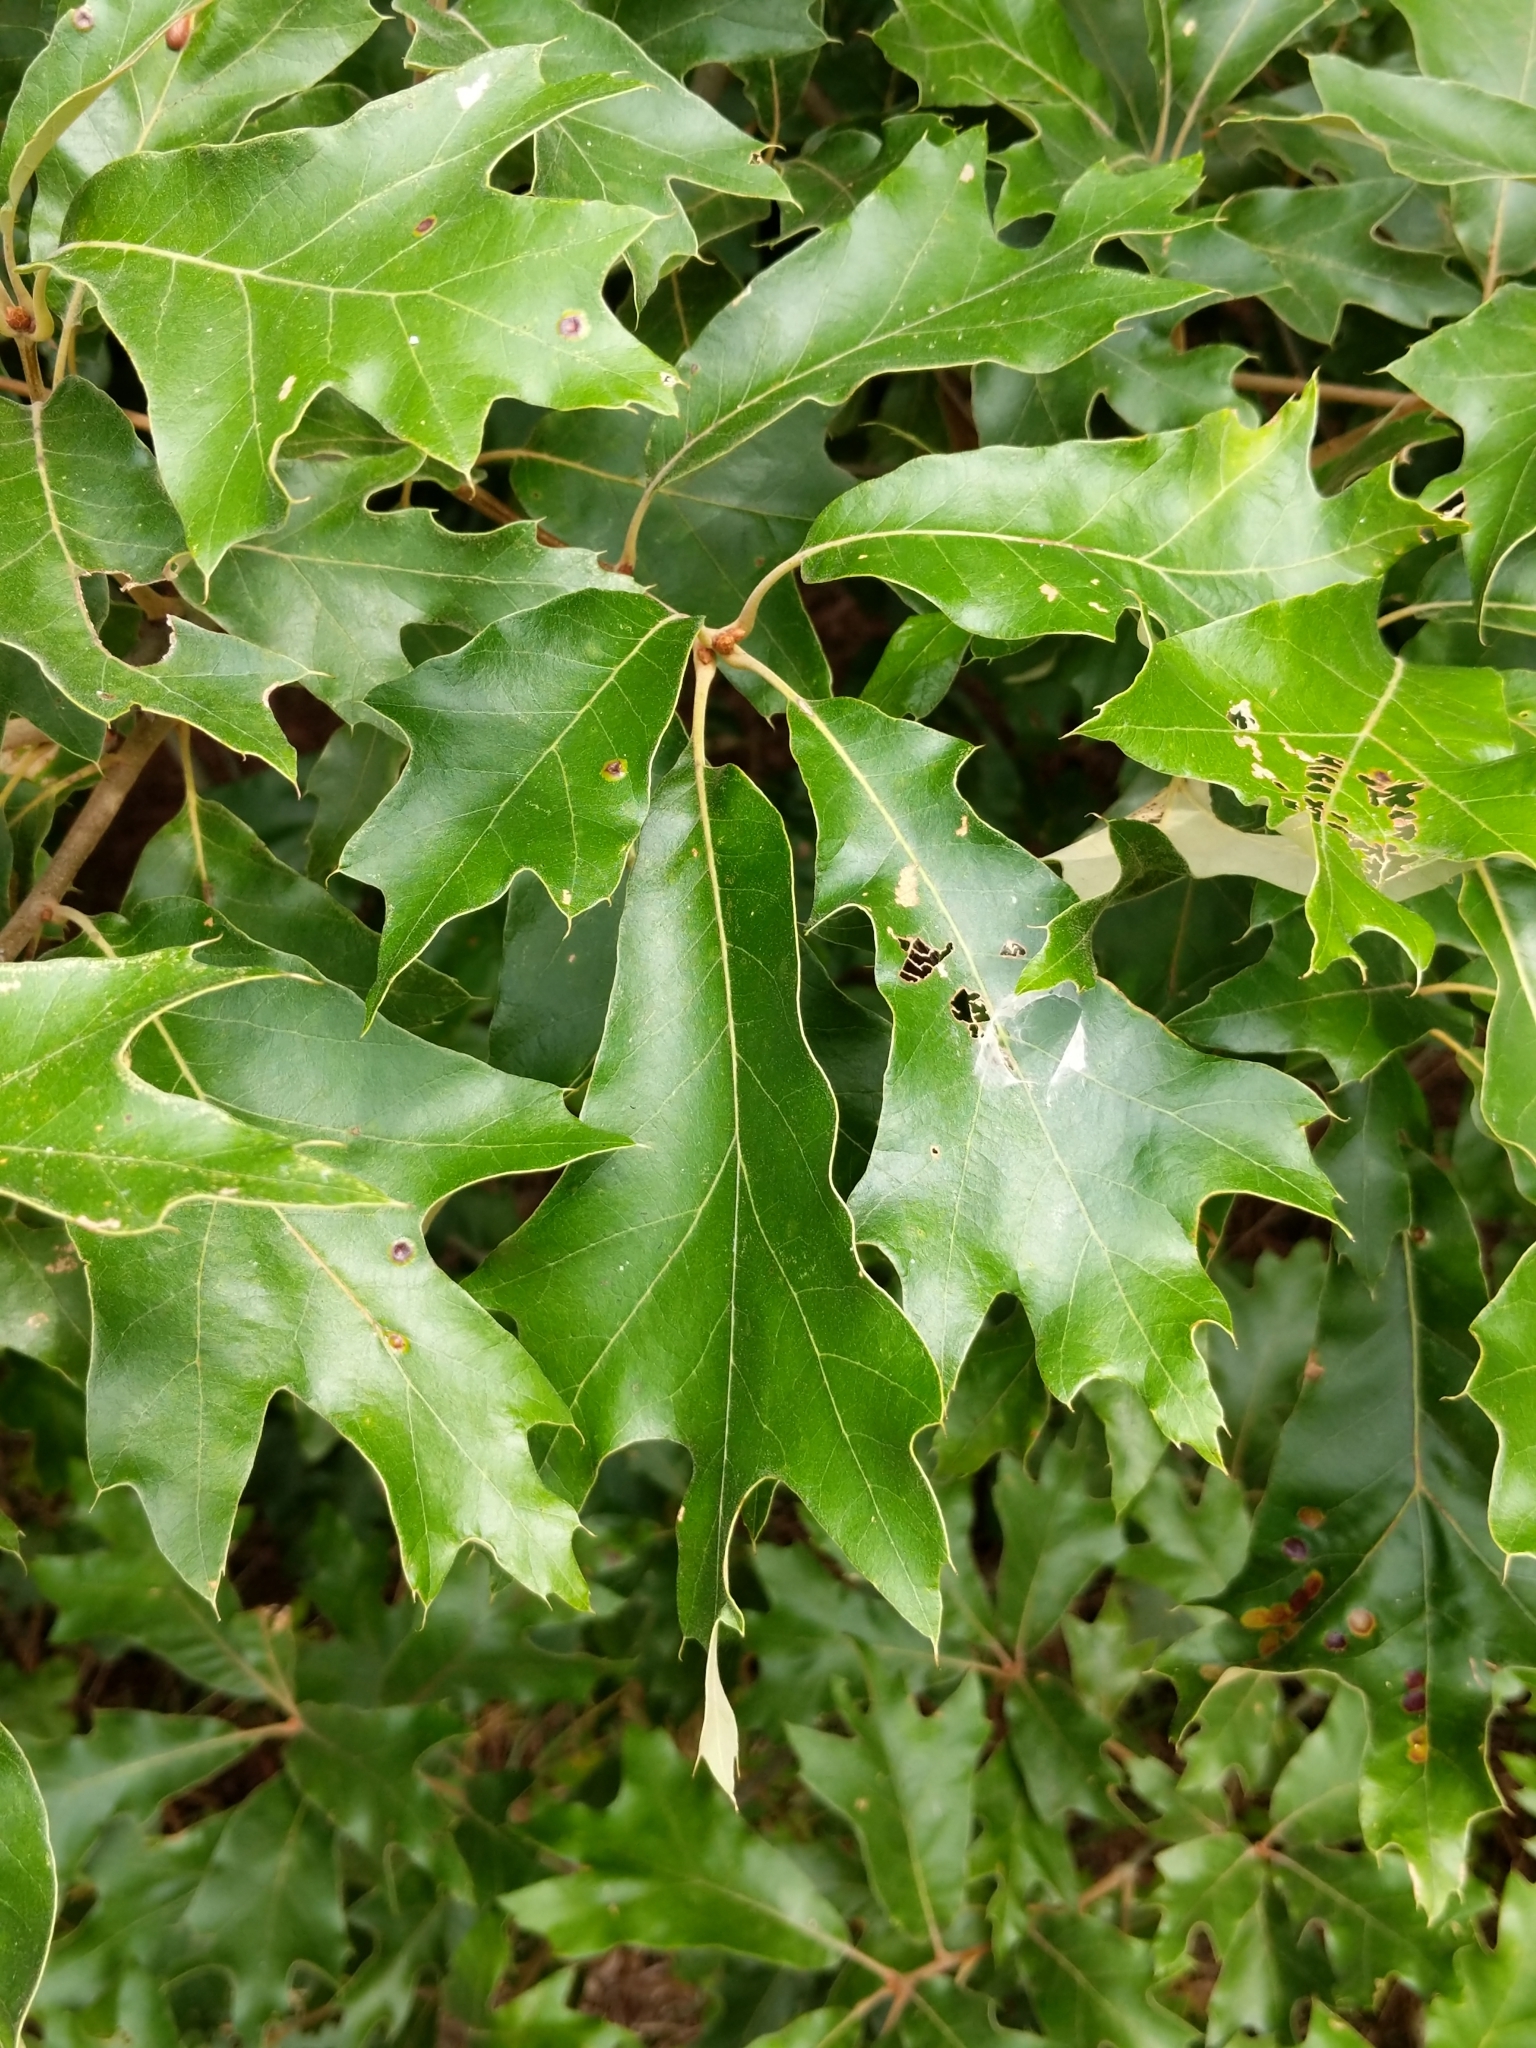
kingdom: Plantae
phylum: Tracheophyta
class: Magnoliopsida
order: Fagales
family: Fagaceae
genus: Quercus
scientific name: Quercus falcata
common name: Southern red oak
